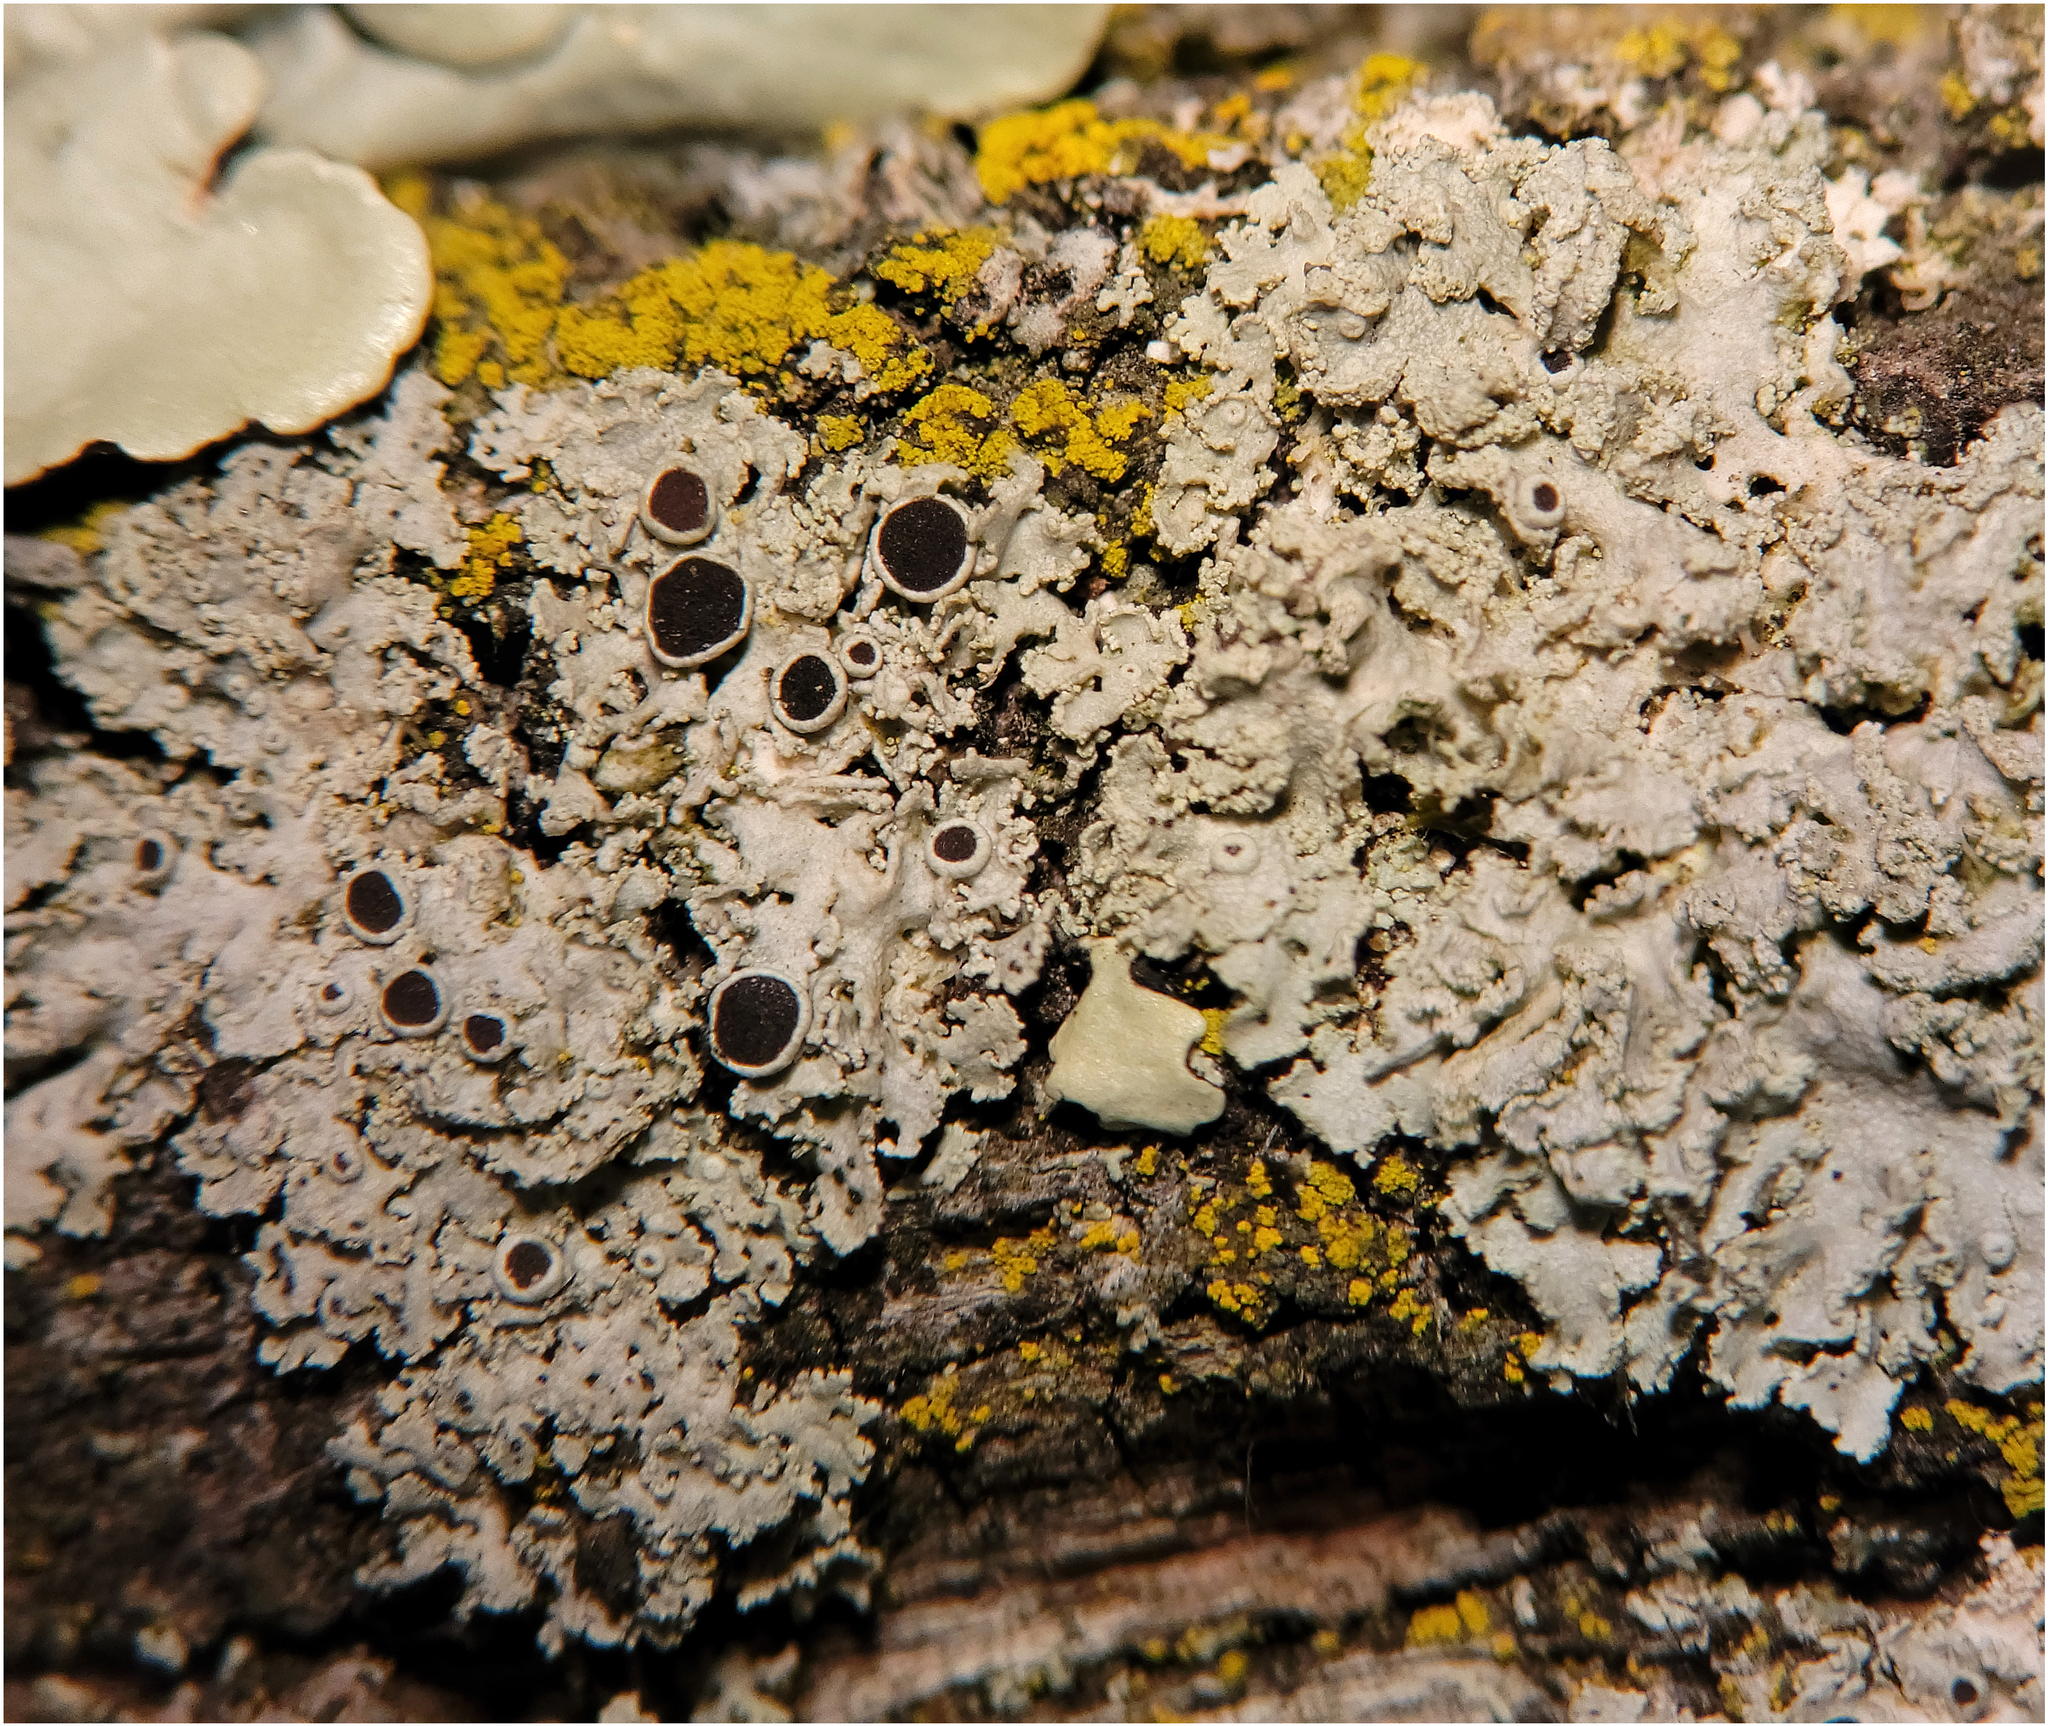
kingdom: Fungi
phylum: Ascomycota
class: Lecanoromycetes
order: Caliciales
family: Physciaceae
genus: Physcia
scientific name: Physcia millegrana
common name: Rosette lichen
